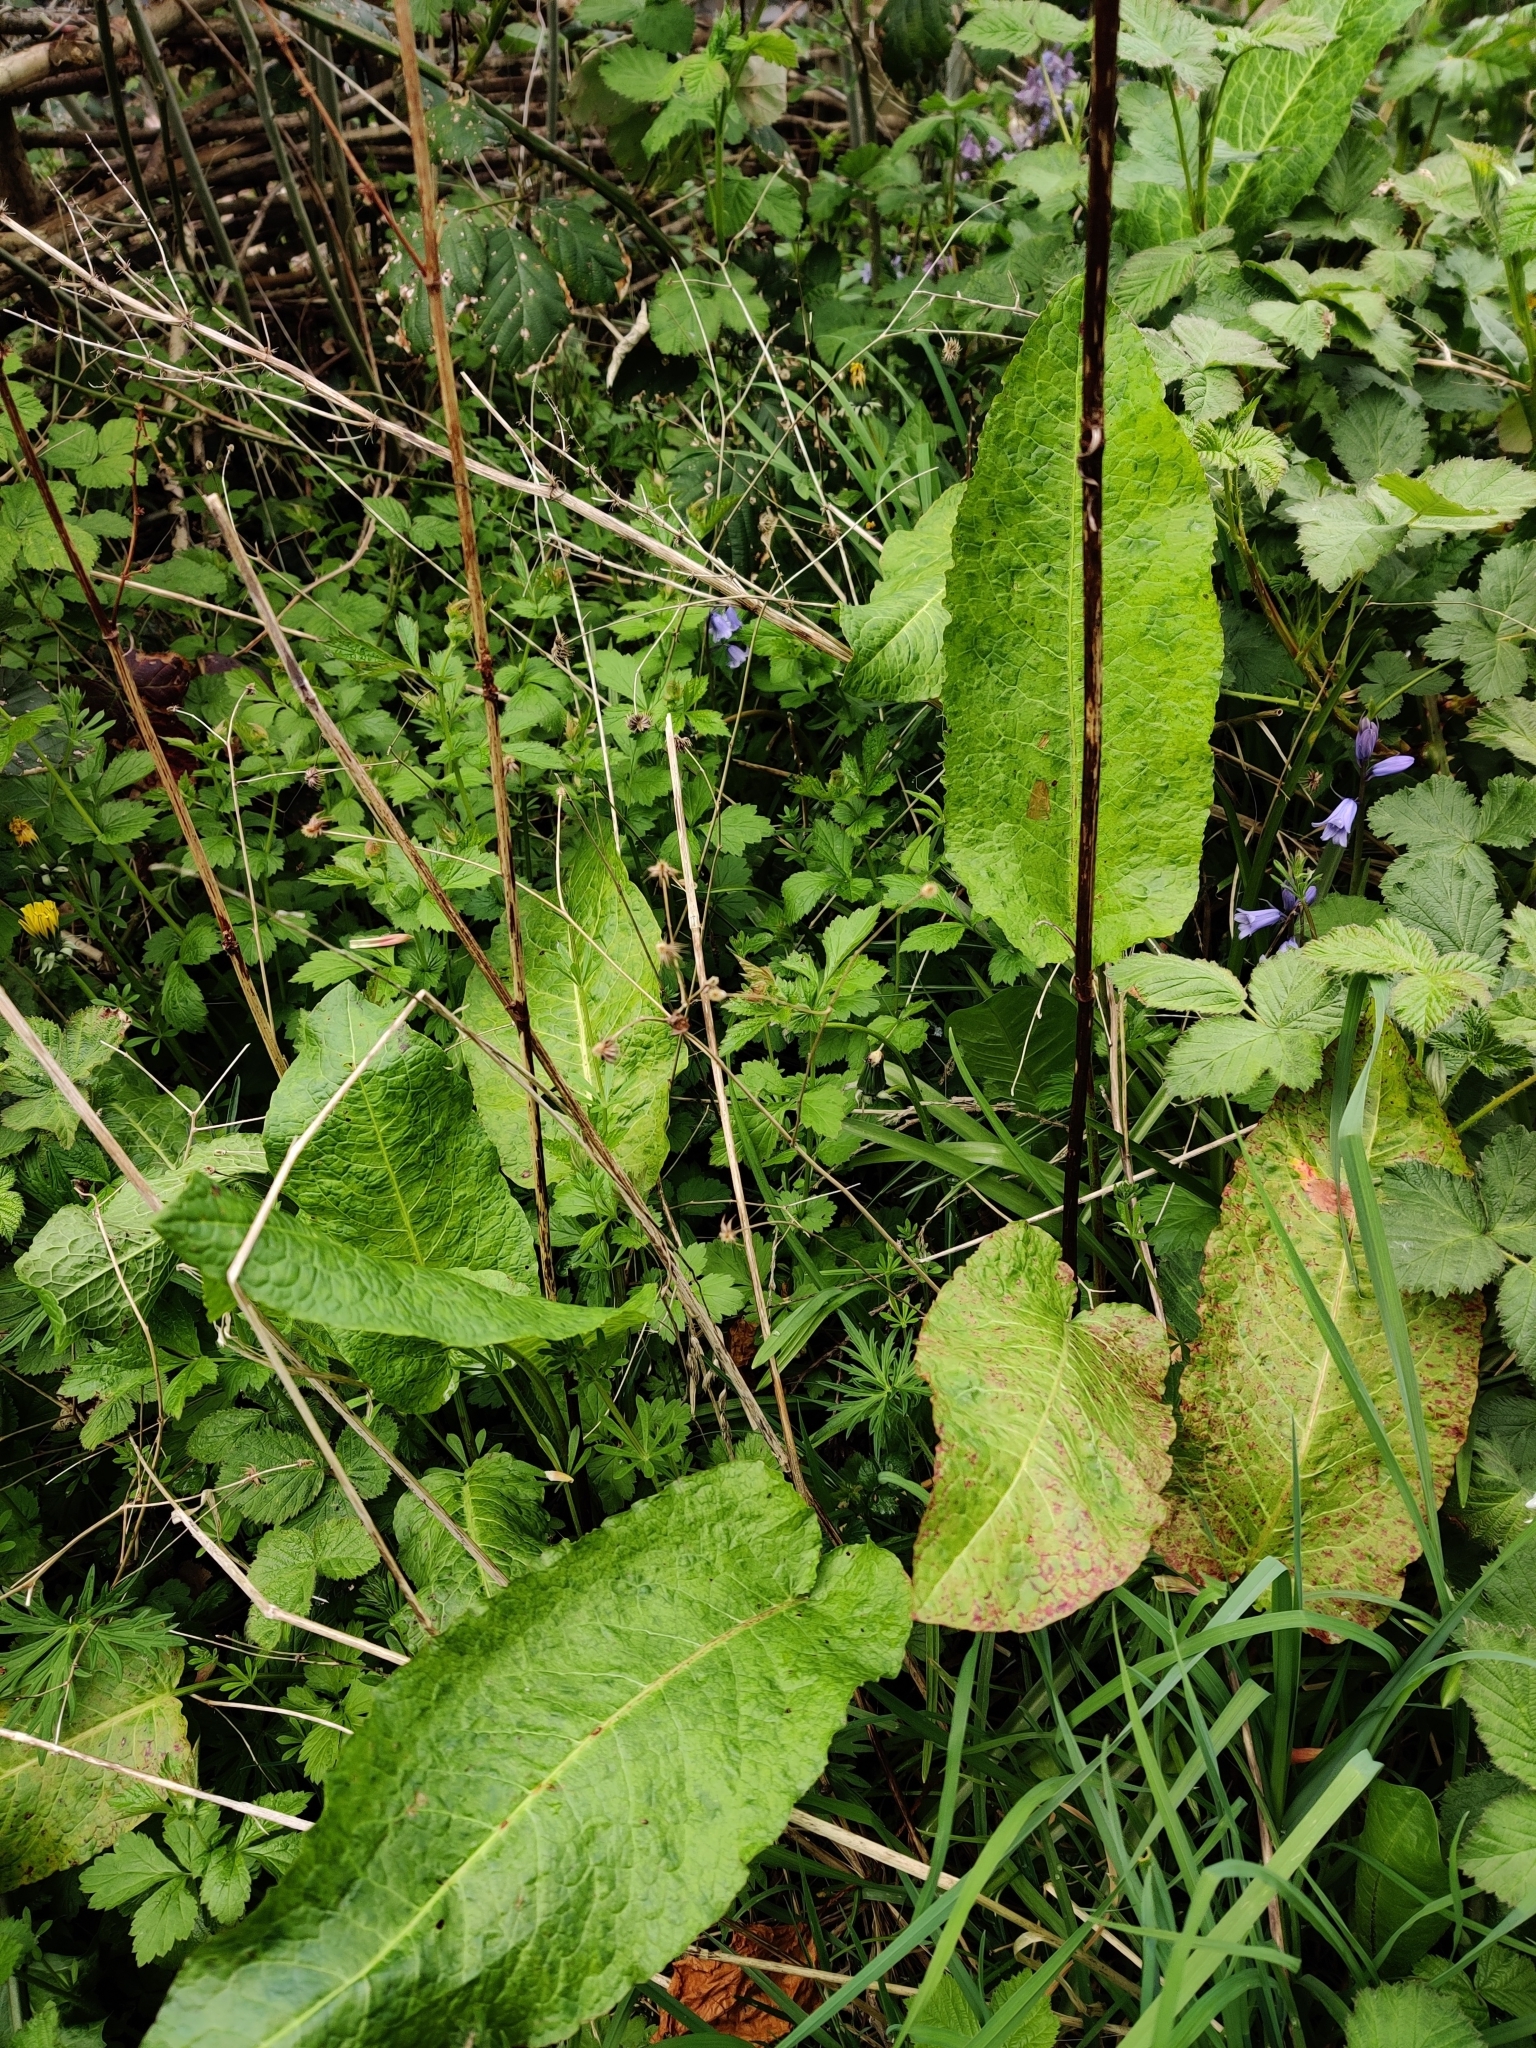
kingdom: Plantae
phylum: Tracheophyta
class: Magnoliopsida
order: Caryophyllales
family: Polygonaceae
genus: Rumex
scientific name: Rumex obtusifolius
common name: Bitter dock
